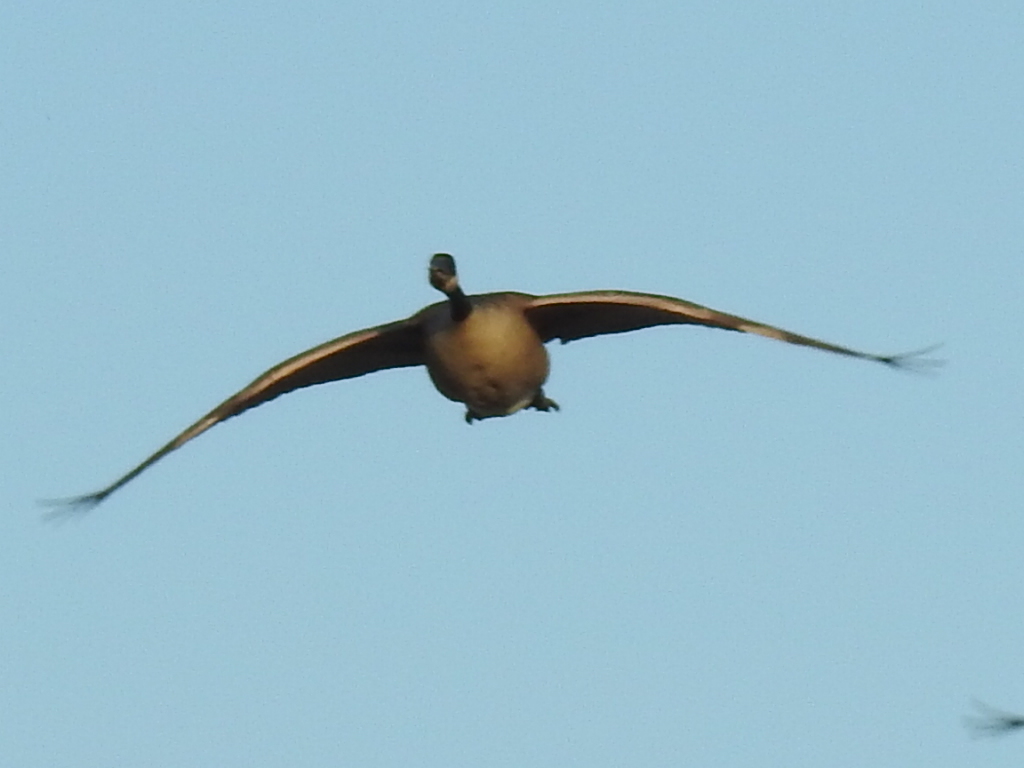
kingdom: Animalia
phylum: Chordata
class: Aves
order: Anseriformes
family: Anatidae
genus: Branta
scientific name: Branta canadensis
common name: Canada goose
